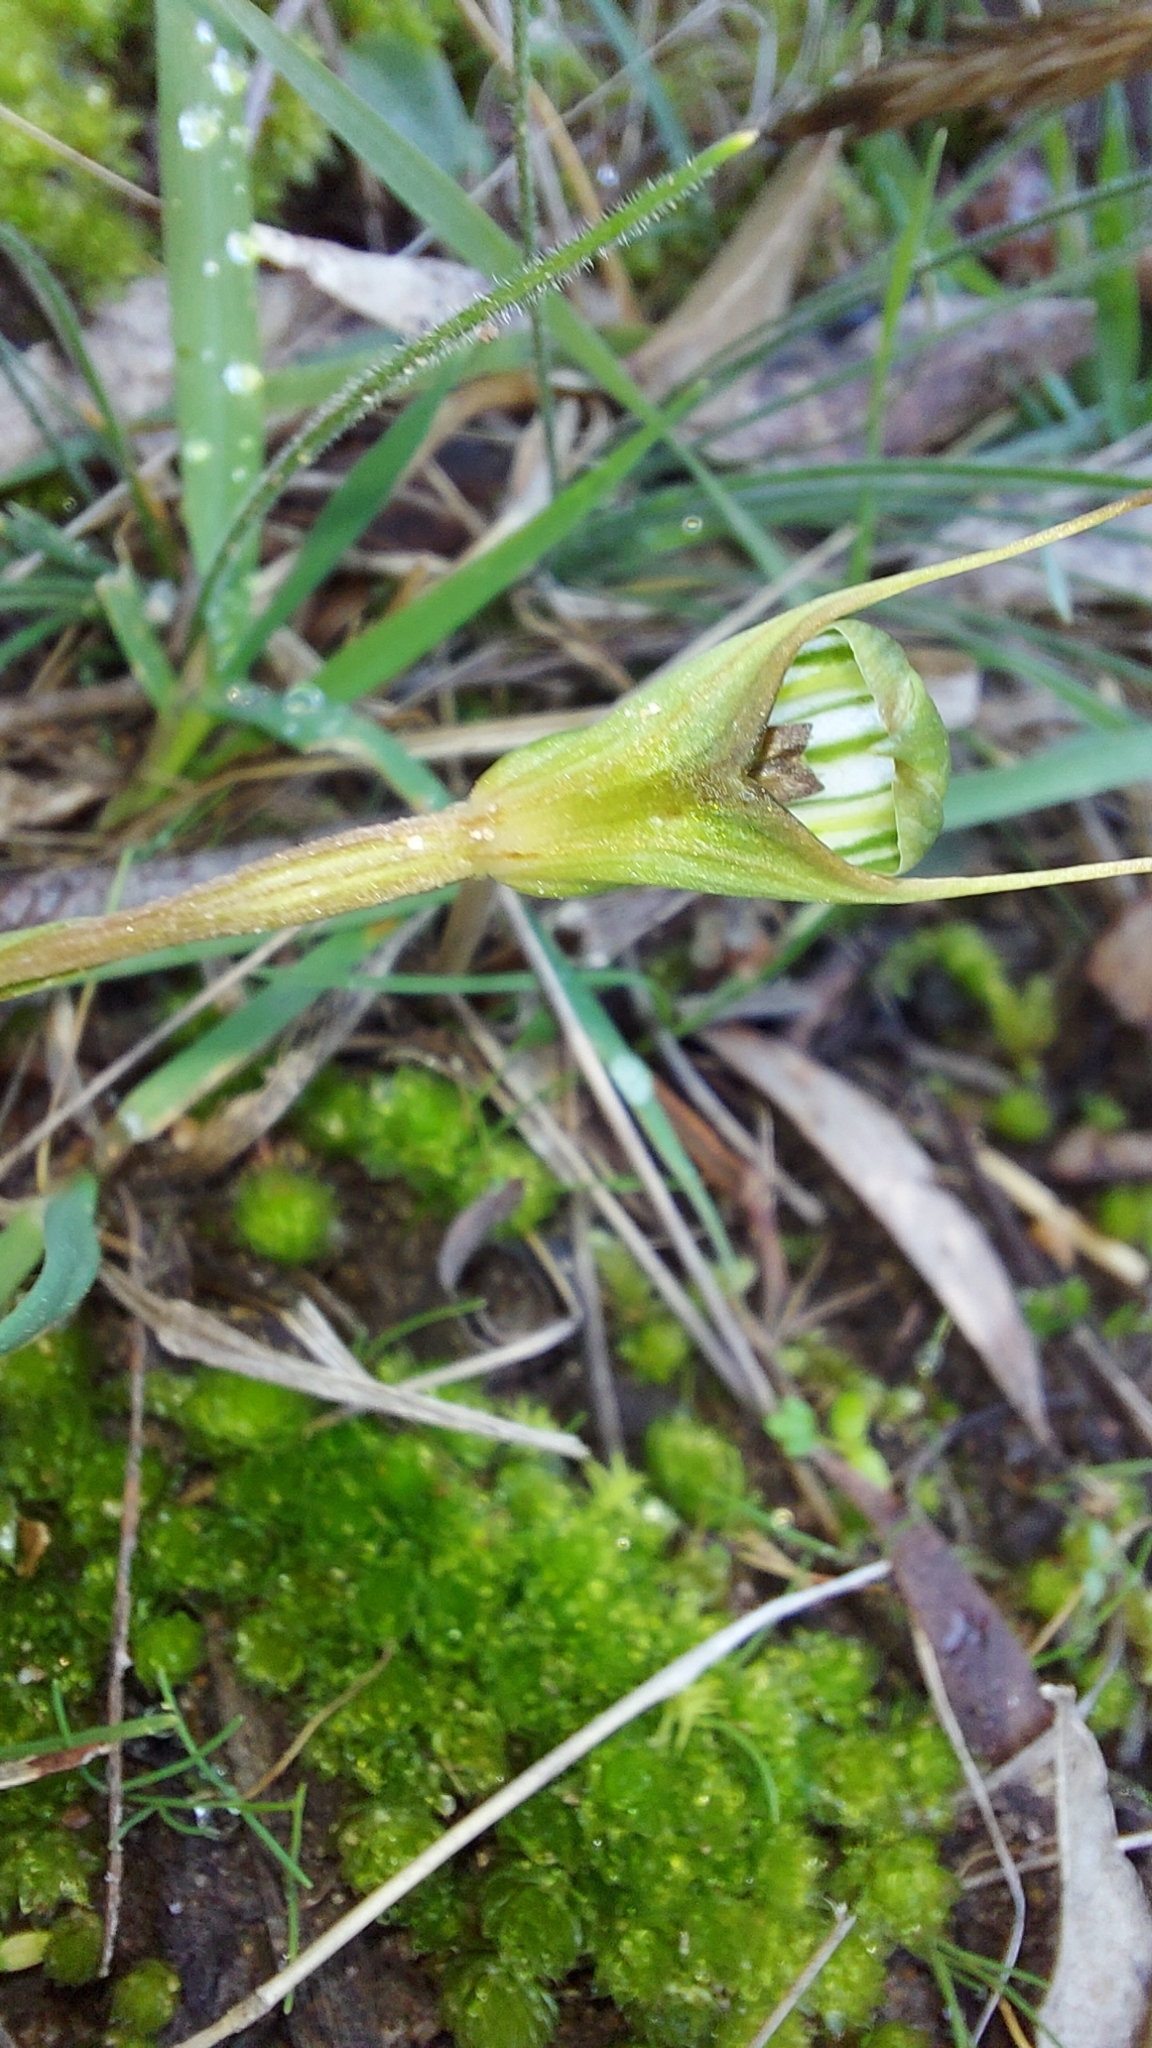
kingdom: Plantae
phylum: Tracheophyta
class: Liliopsida
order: Asparagales
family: Orchidaceae
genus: Pterostylis
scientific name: Pterostylis concinna
